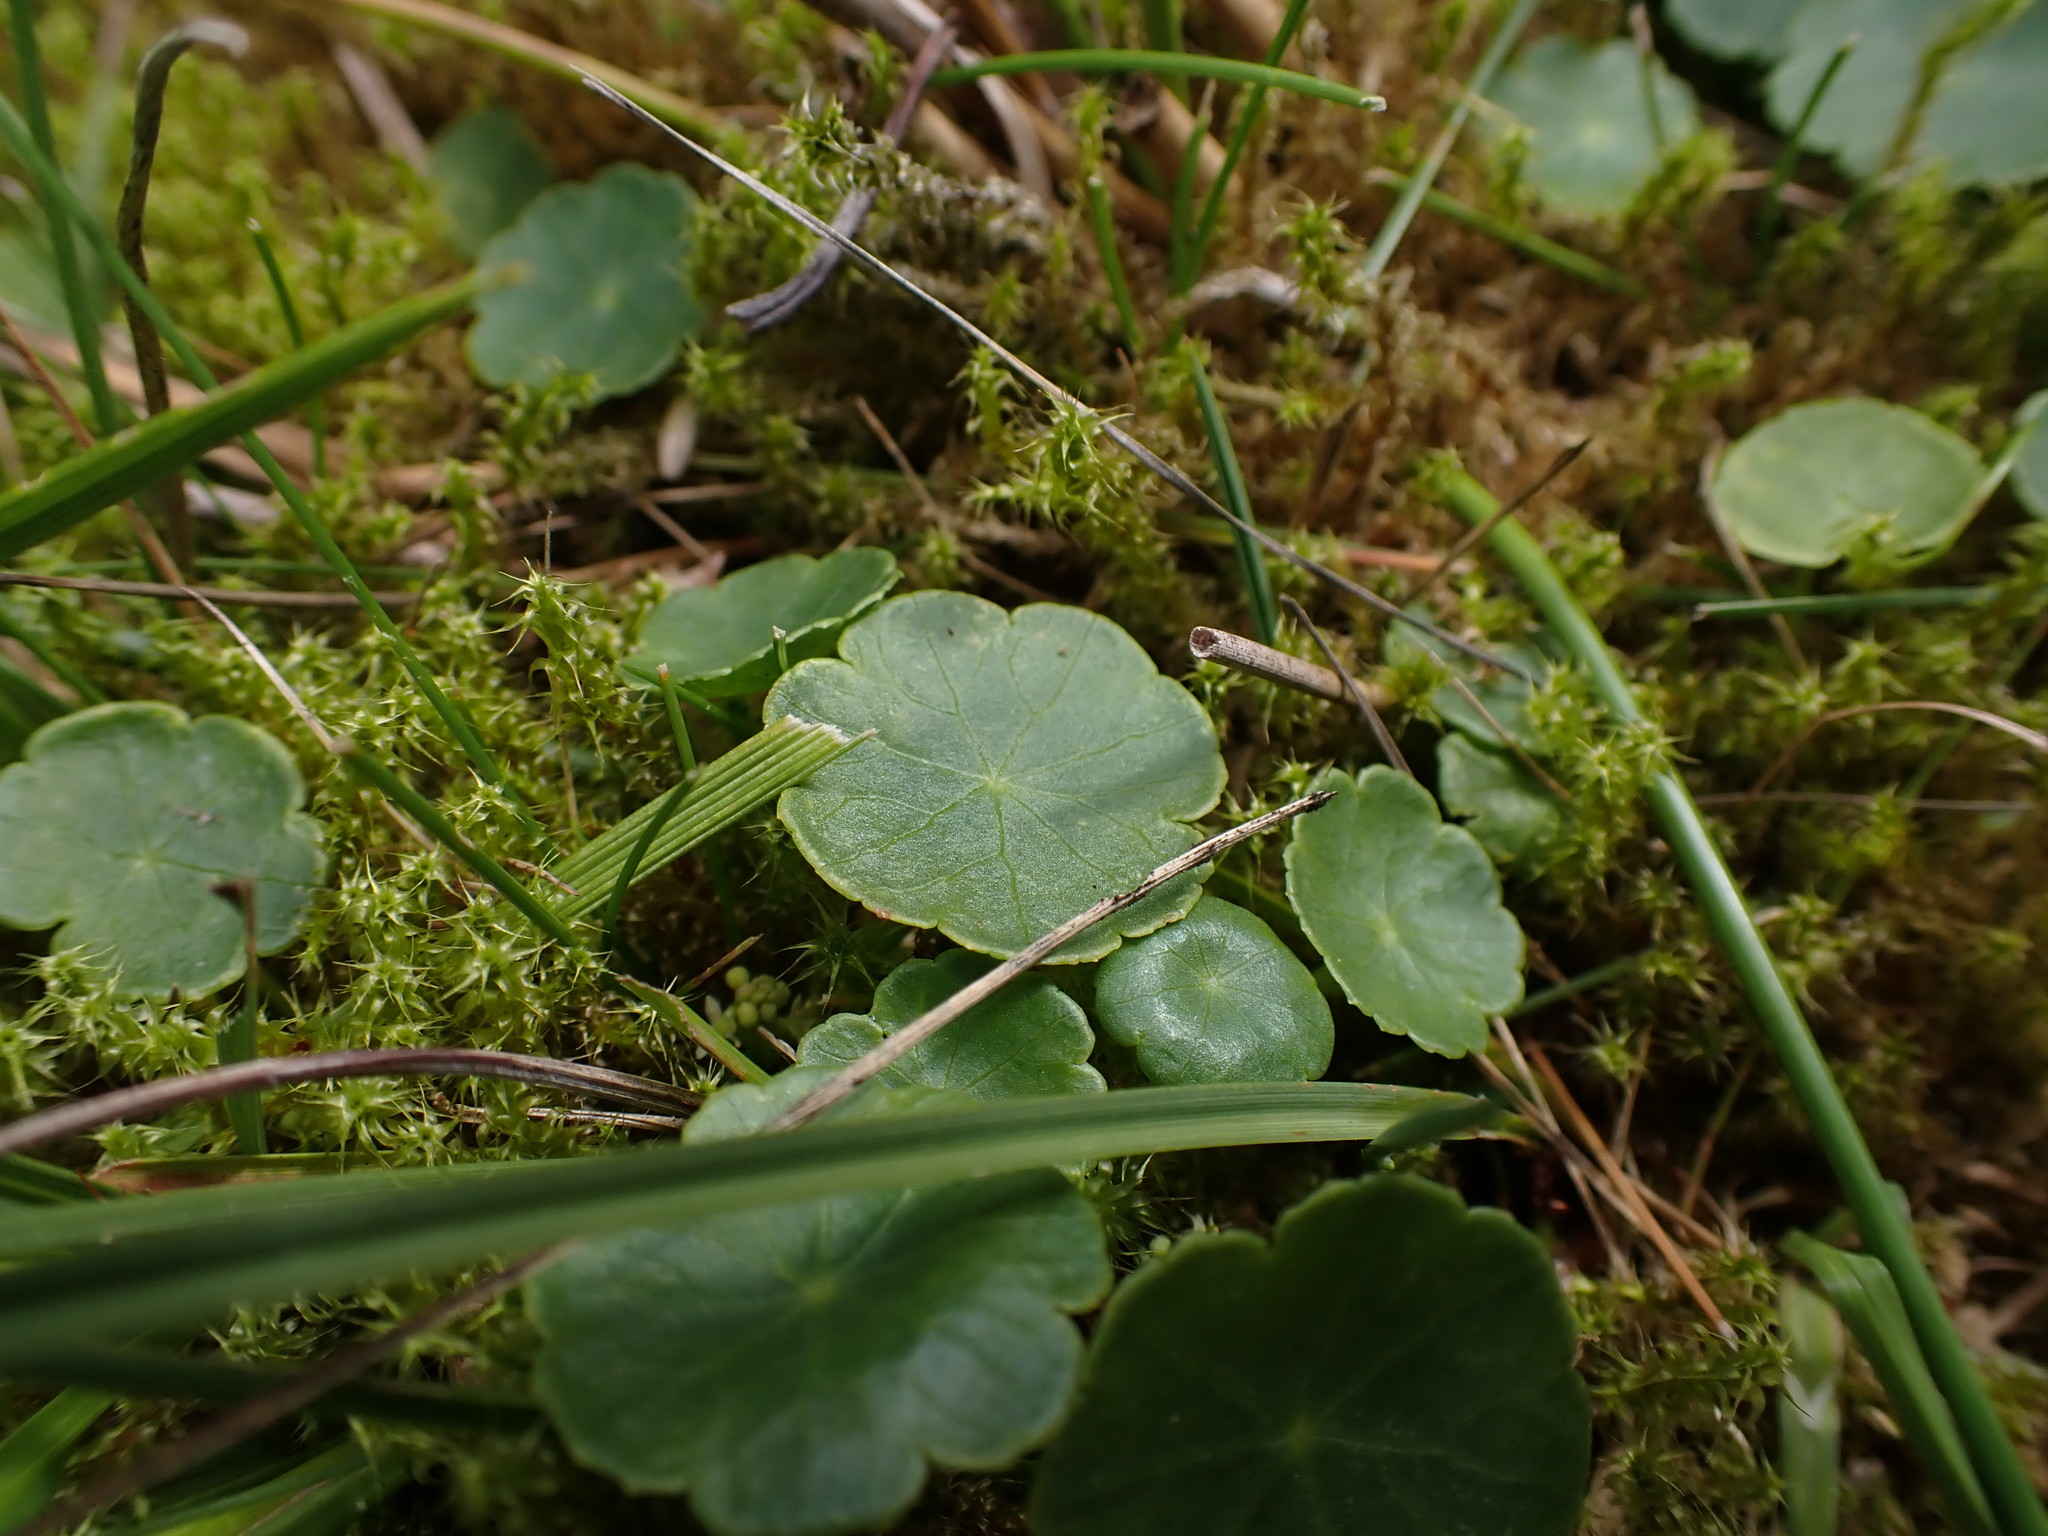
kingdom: Plantae
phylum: Tracheophyta
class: Magnoliopsida
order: Apiales
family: Araliaceae
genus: Hydrocotyle
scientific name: Hydrocotyle vulgaris
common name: Marsh pennywort
